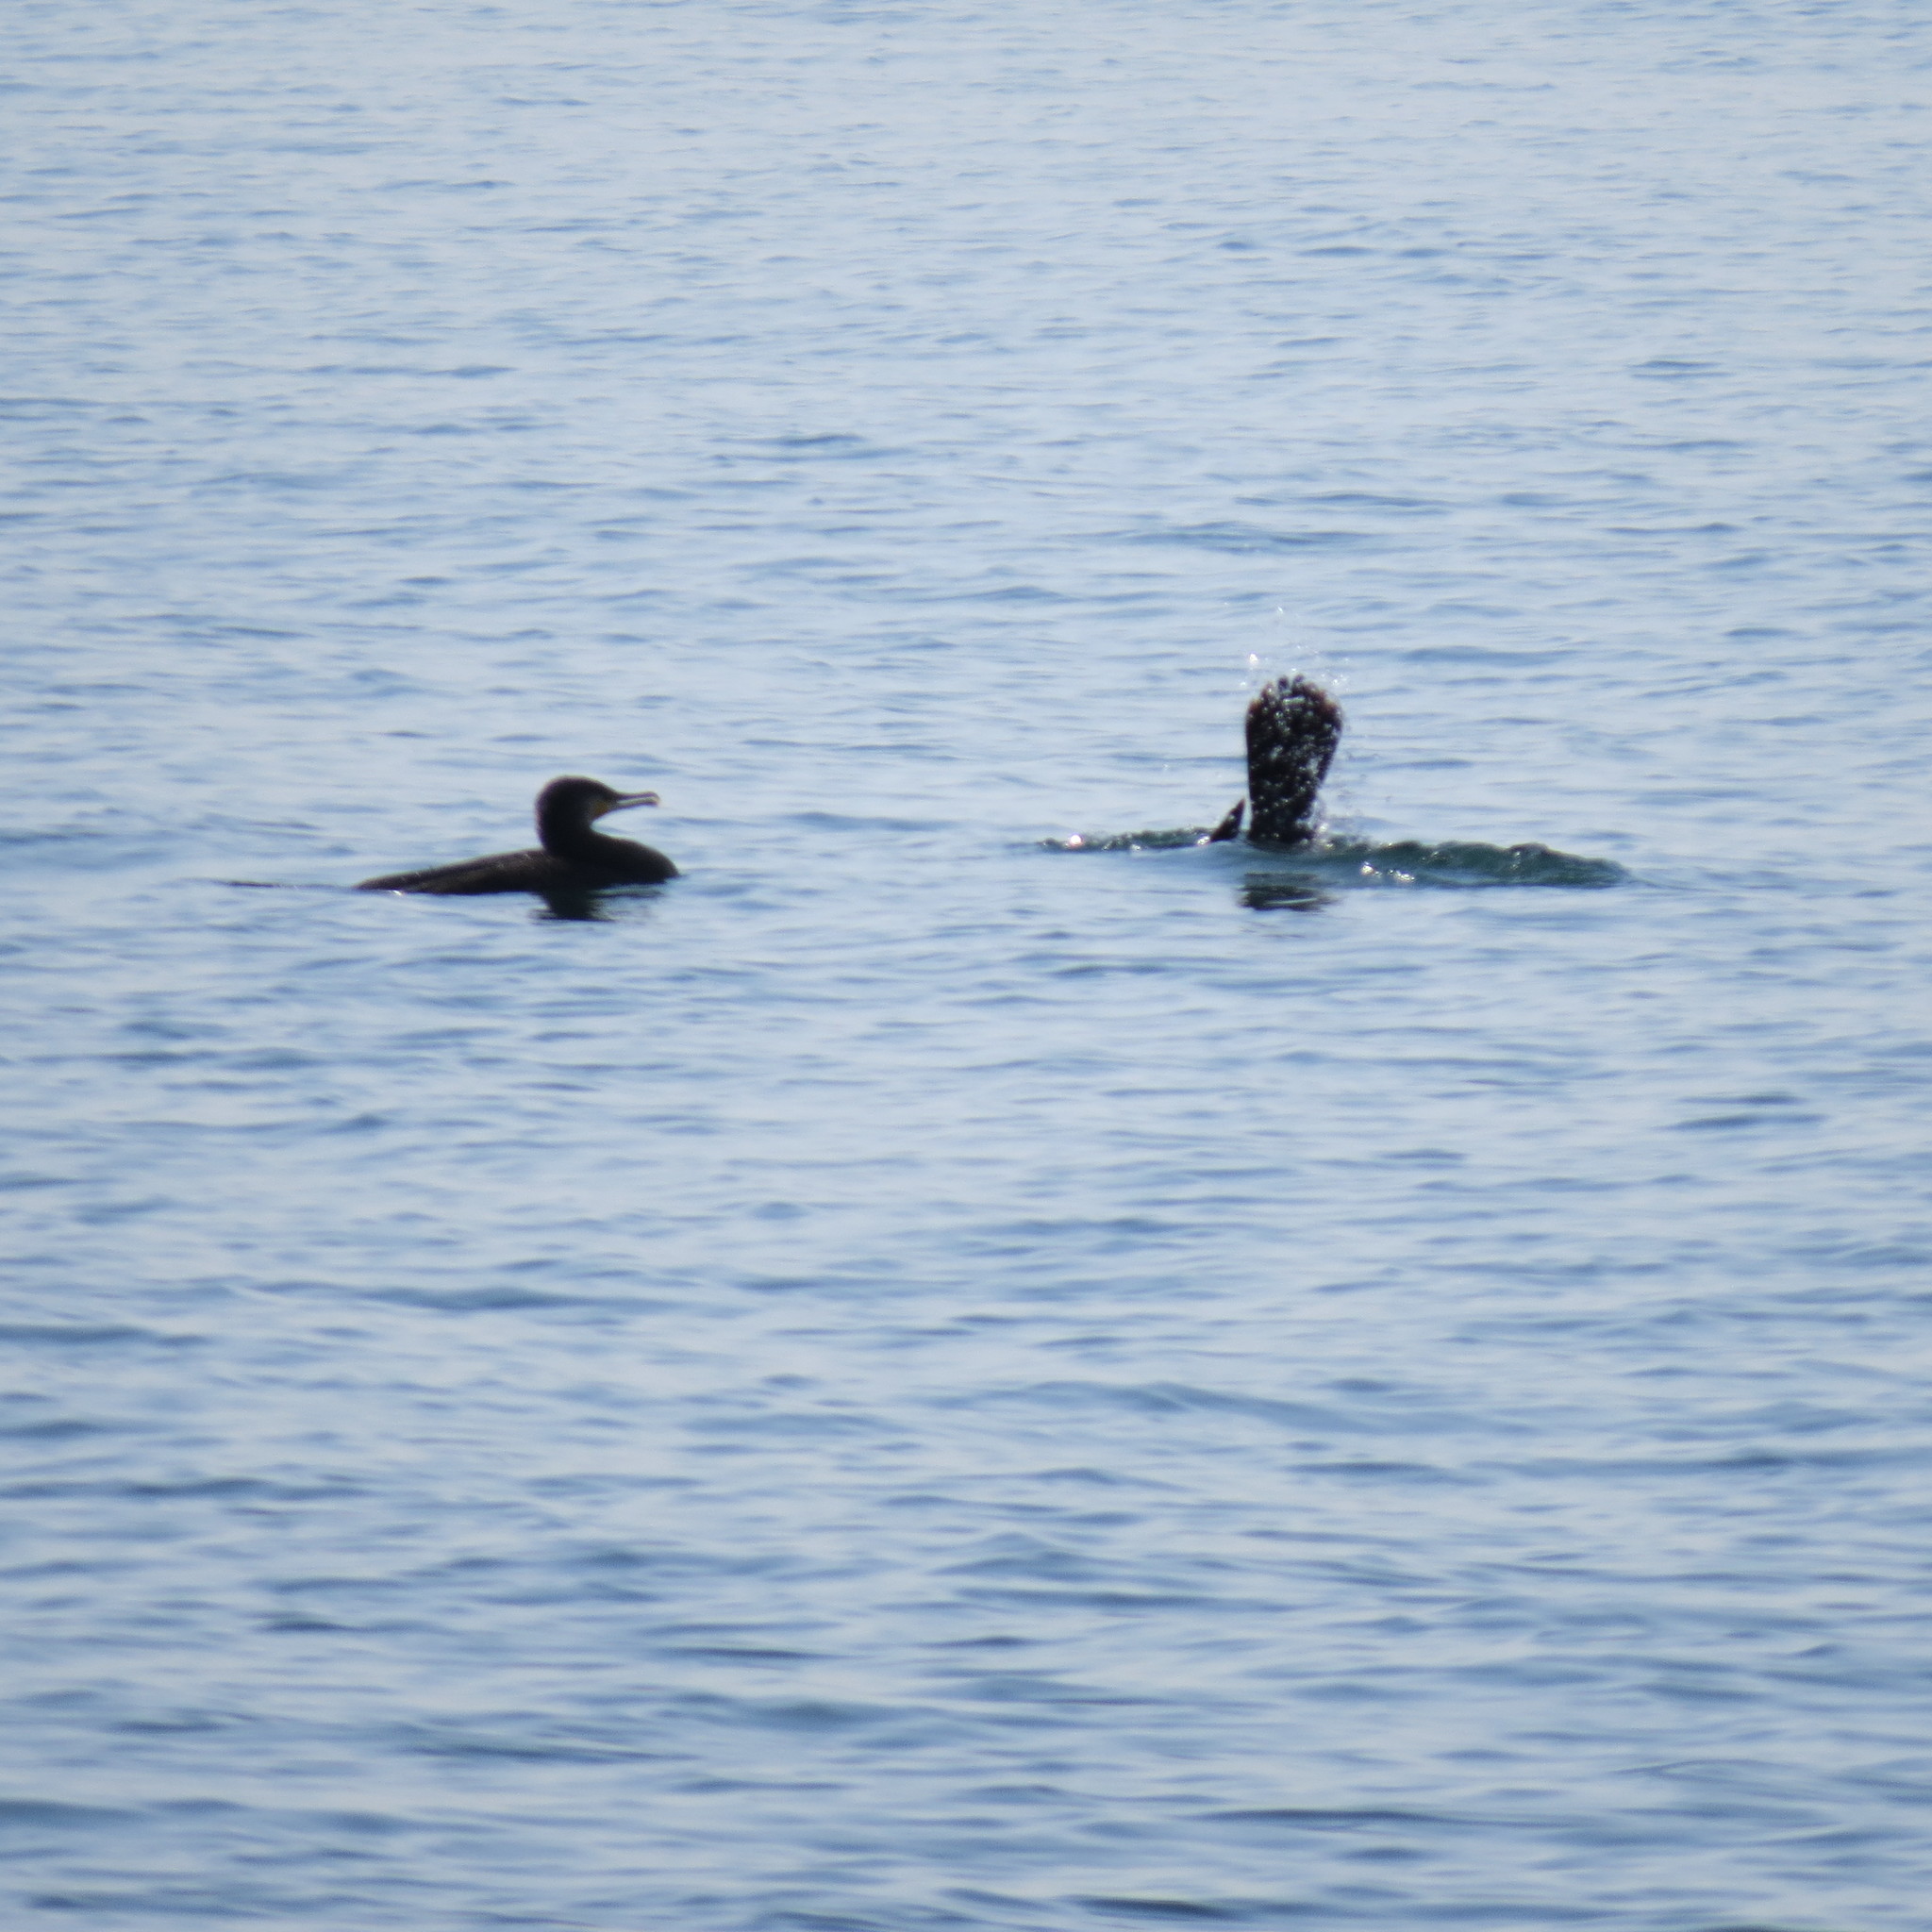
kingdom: Animalia
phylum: Chordata
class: Aves
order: Suliformes
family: Phalacrocoracidae
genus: Phalacrocorax
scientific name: Phalacrocorax carbo
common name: Great cormorant
